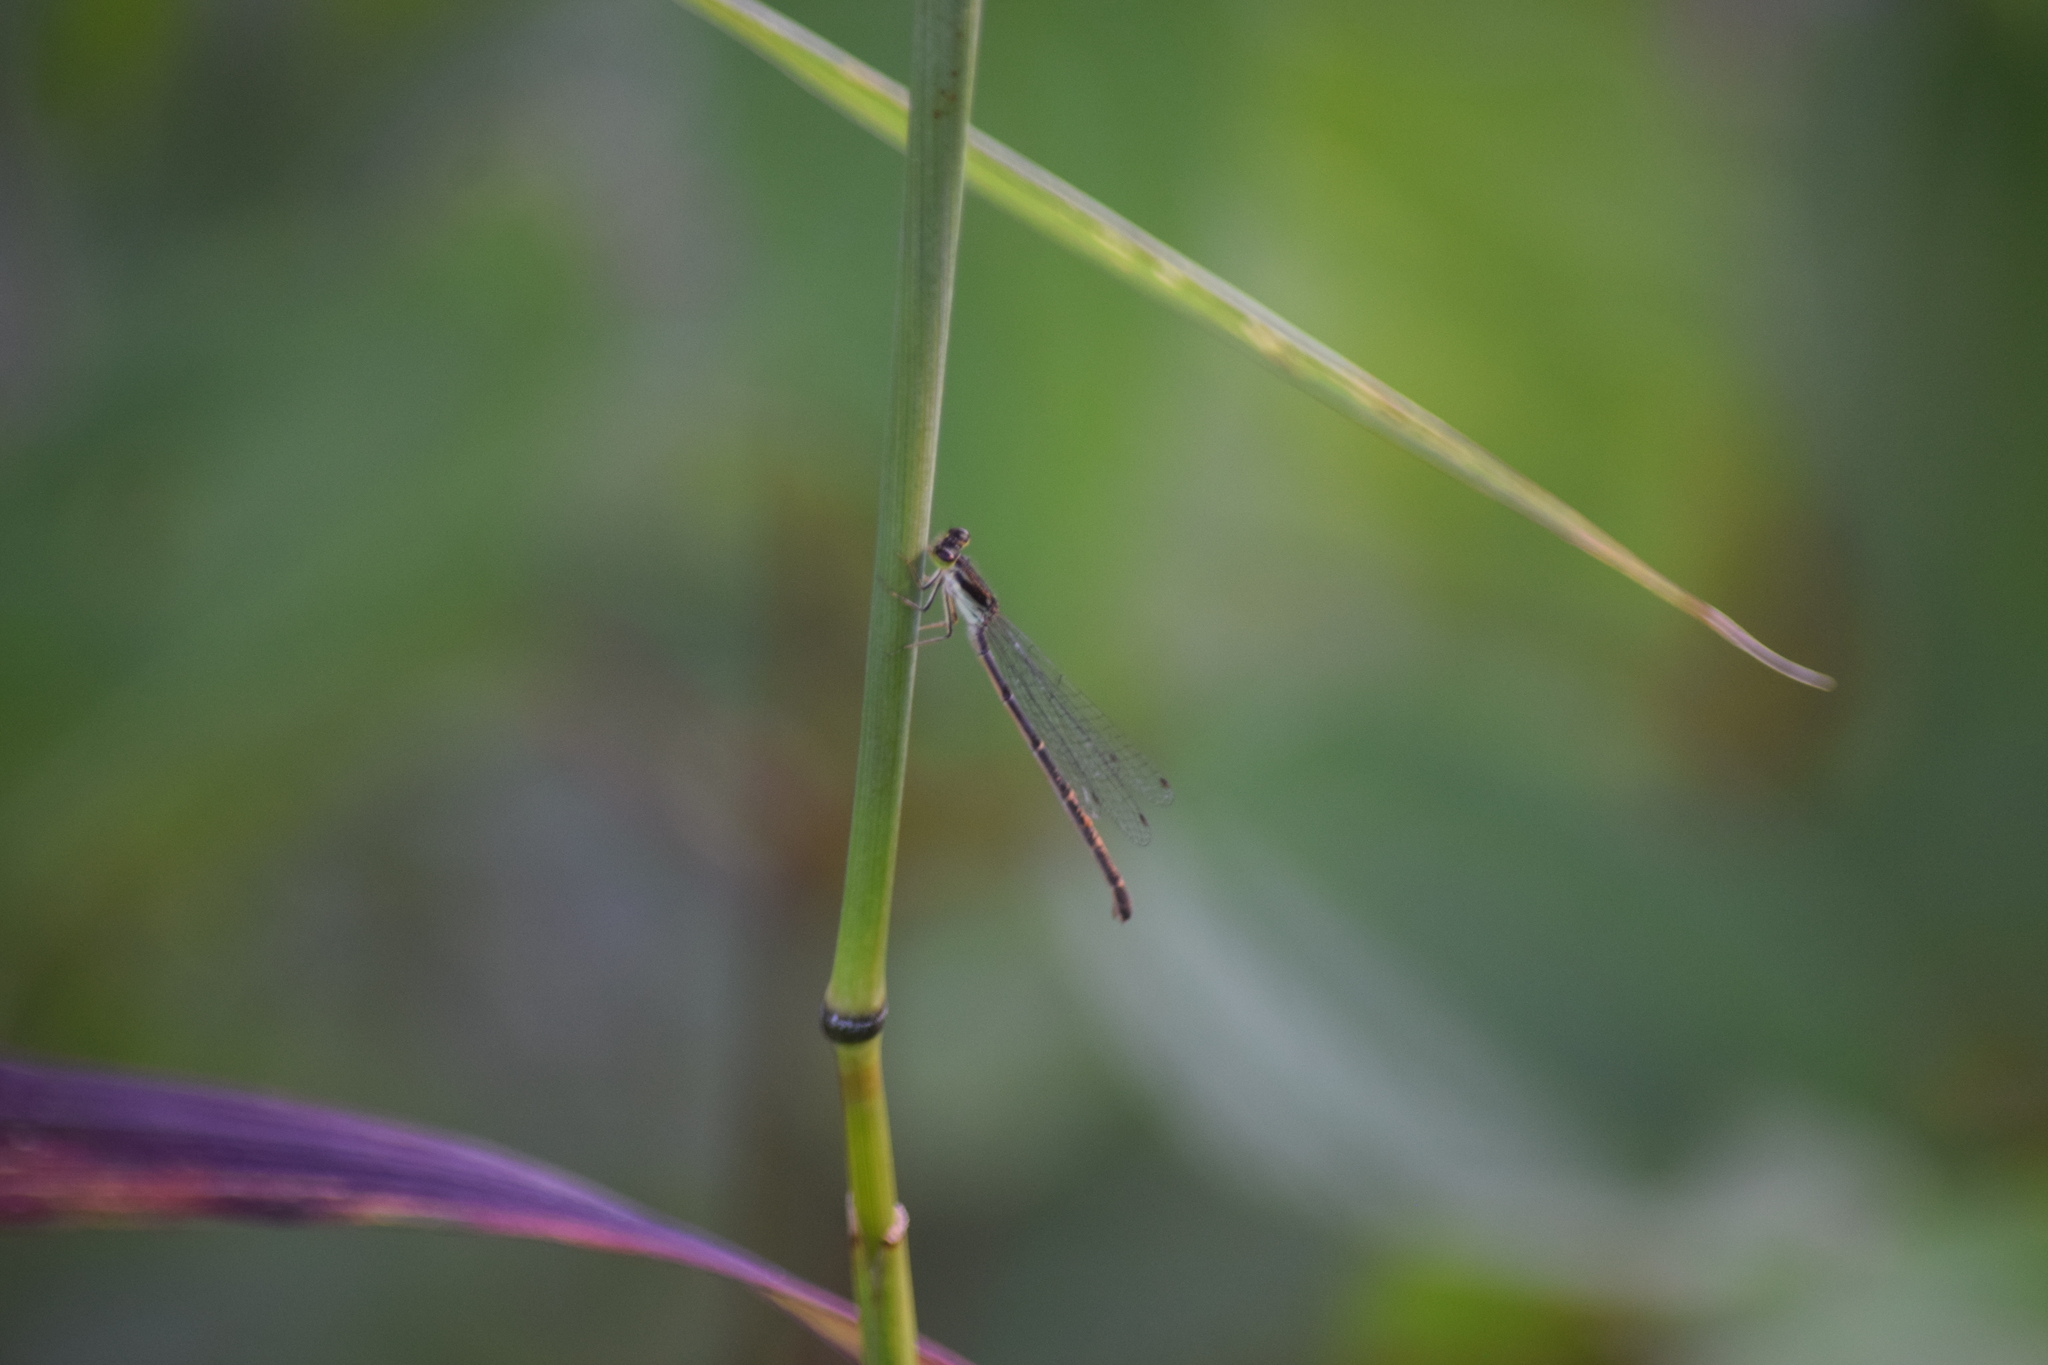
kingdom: Animalia
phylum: Arthropoda
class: Insecta
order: Odonata
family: Coenagrionidae
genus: Ischnura
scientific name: Ischnura posita
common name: Fragile forktail
